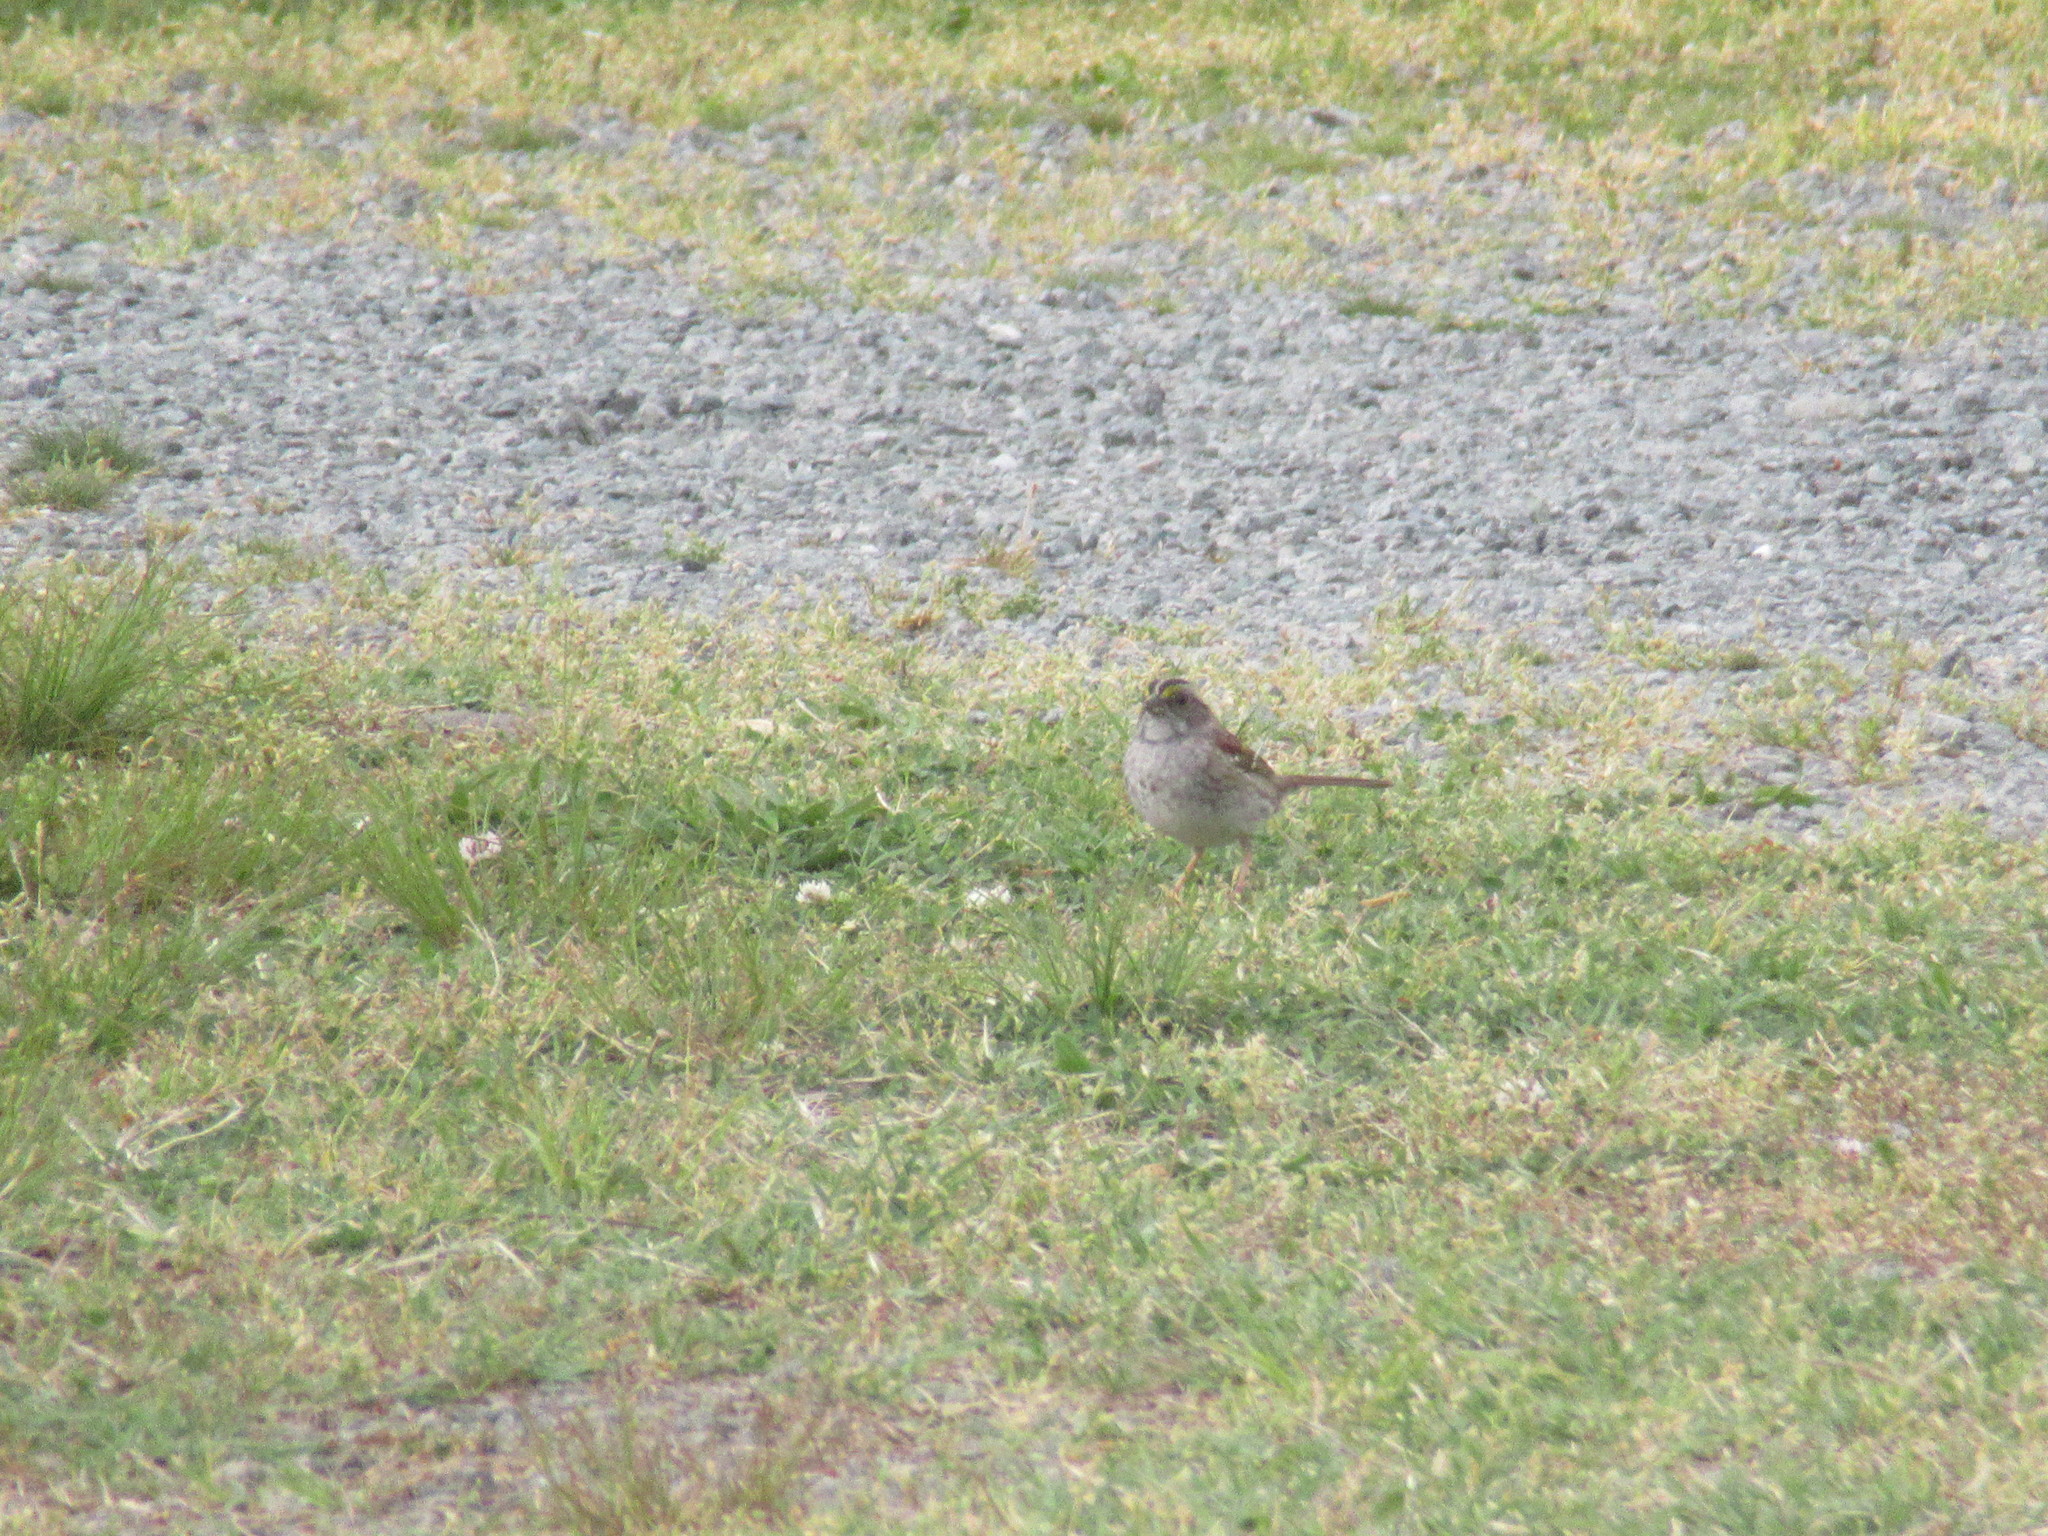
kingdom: Animalia
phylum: Chordata
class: Aves
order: Passeriformes
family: Passerellidae
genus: Zonotrichia
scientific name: Zonotrichia albicollis
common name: White-throated sparrow
